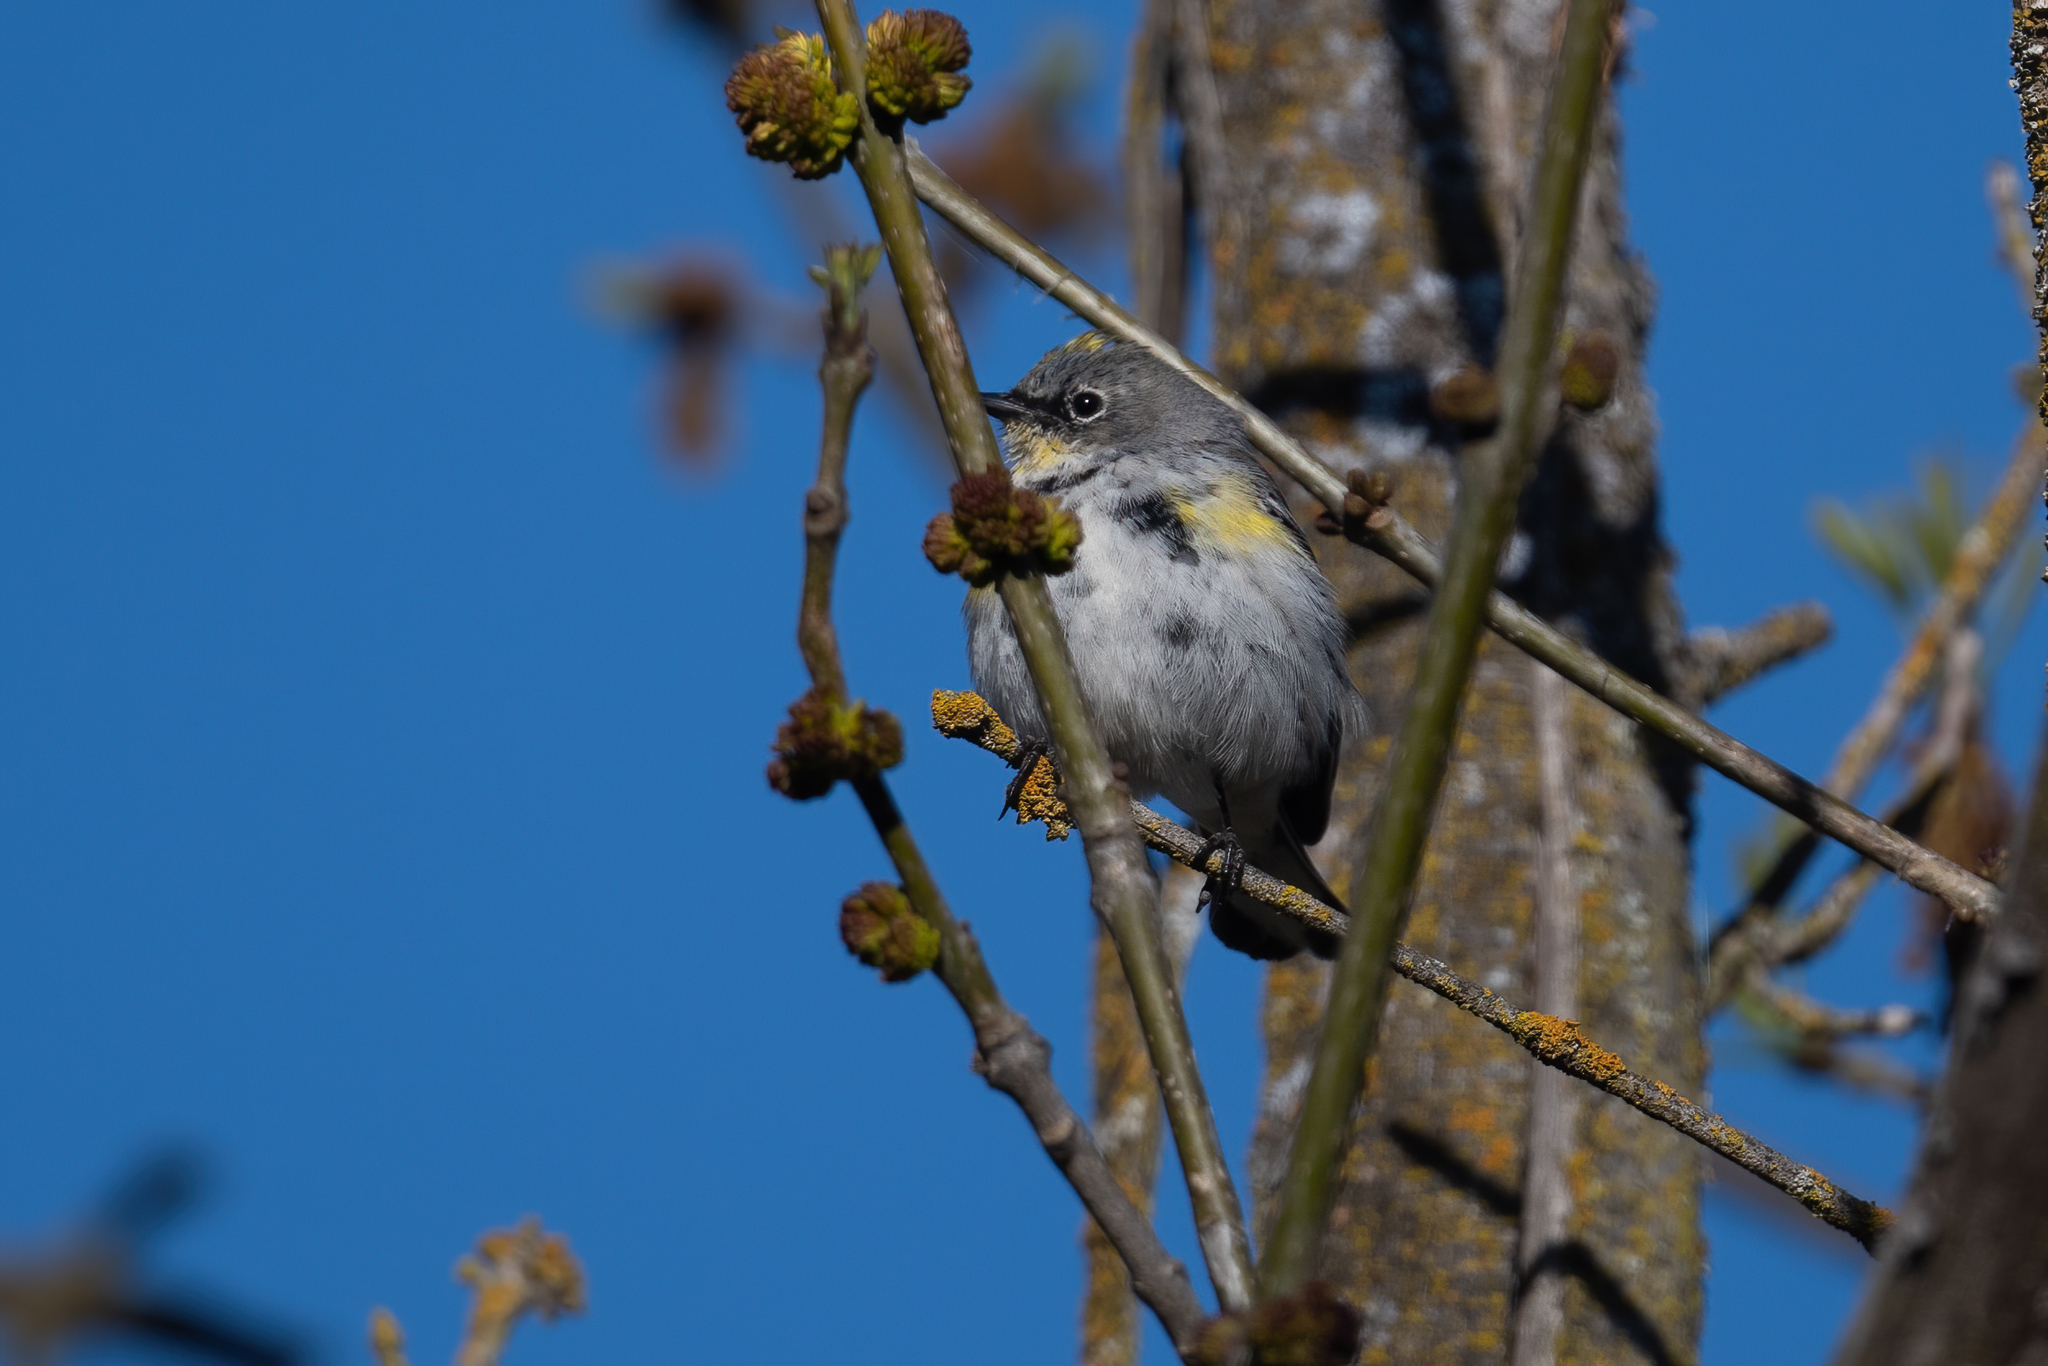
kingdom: Animalia
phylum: Chordata
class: Aves
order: Passeriformes
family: Parulidae
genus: Setophaga
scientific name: Setophaga coronata
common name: Myrtle warbler
